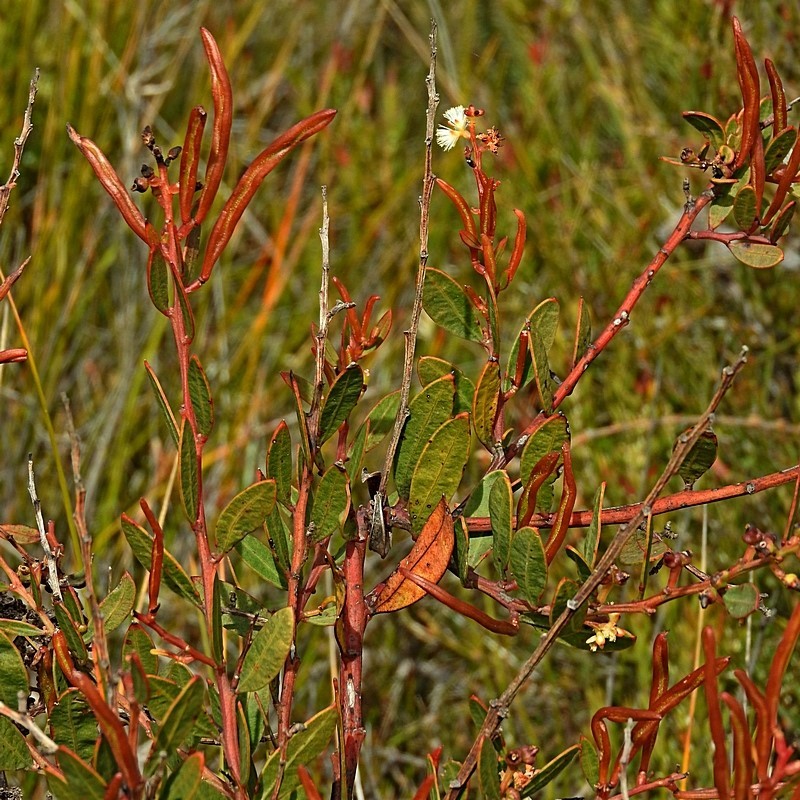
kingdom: Plantae
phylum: Tracheophyta
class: Magnoliopsida
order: Fabales
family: Fabaceae
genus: Acacia
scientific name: Acacia myrtifolia
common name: Myrtle wattle
